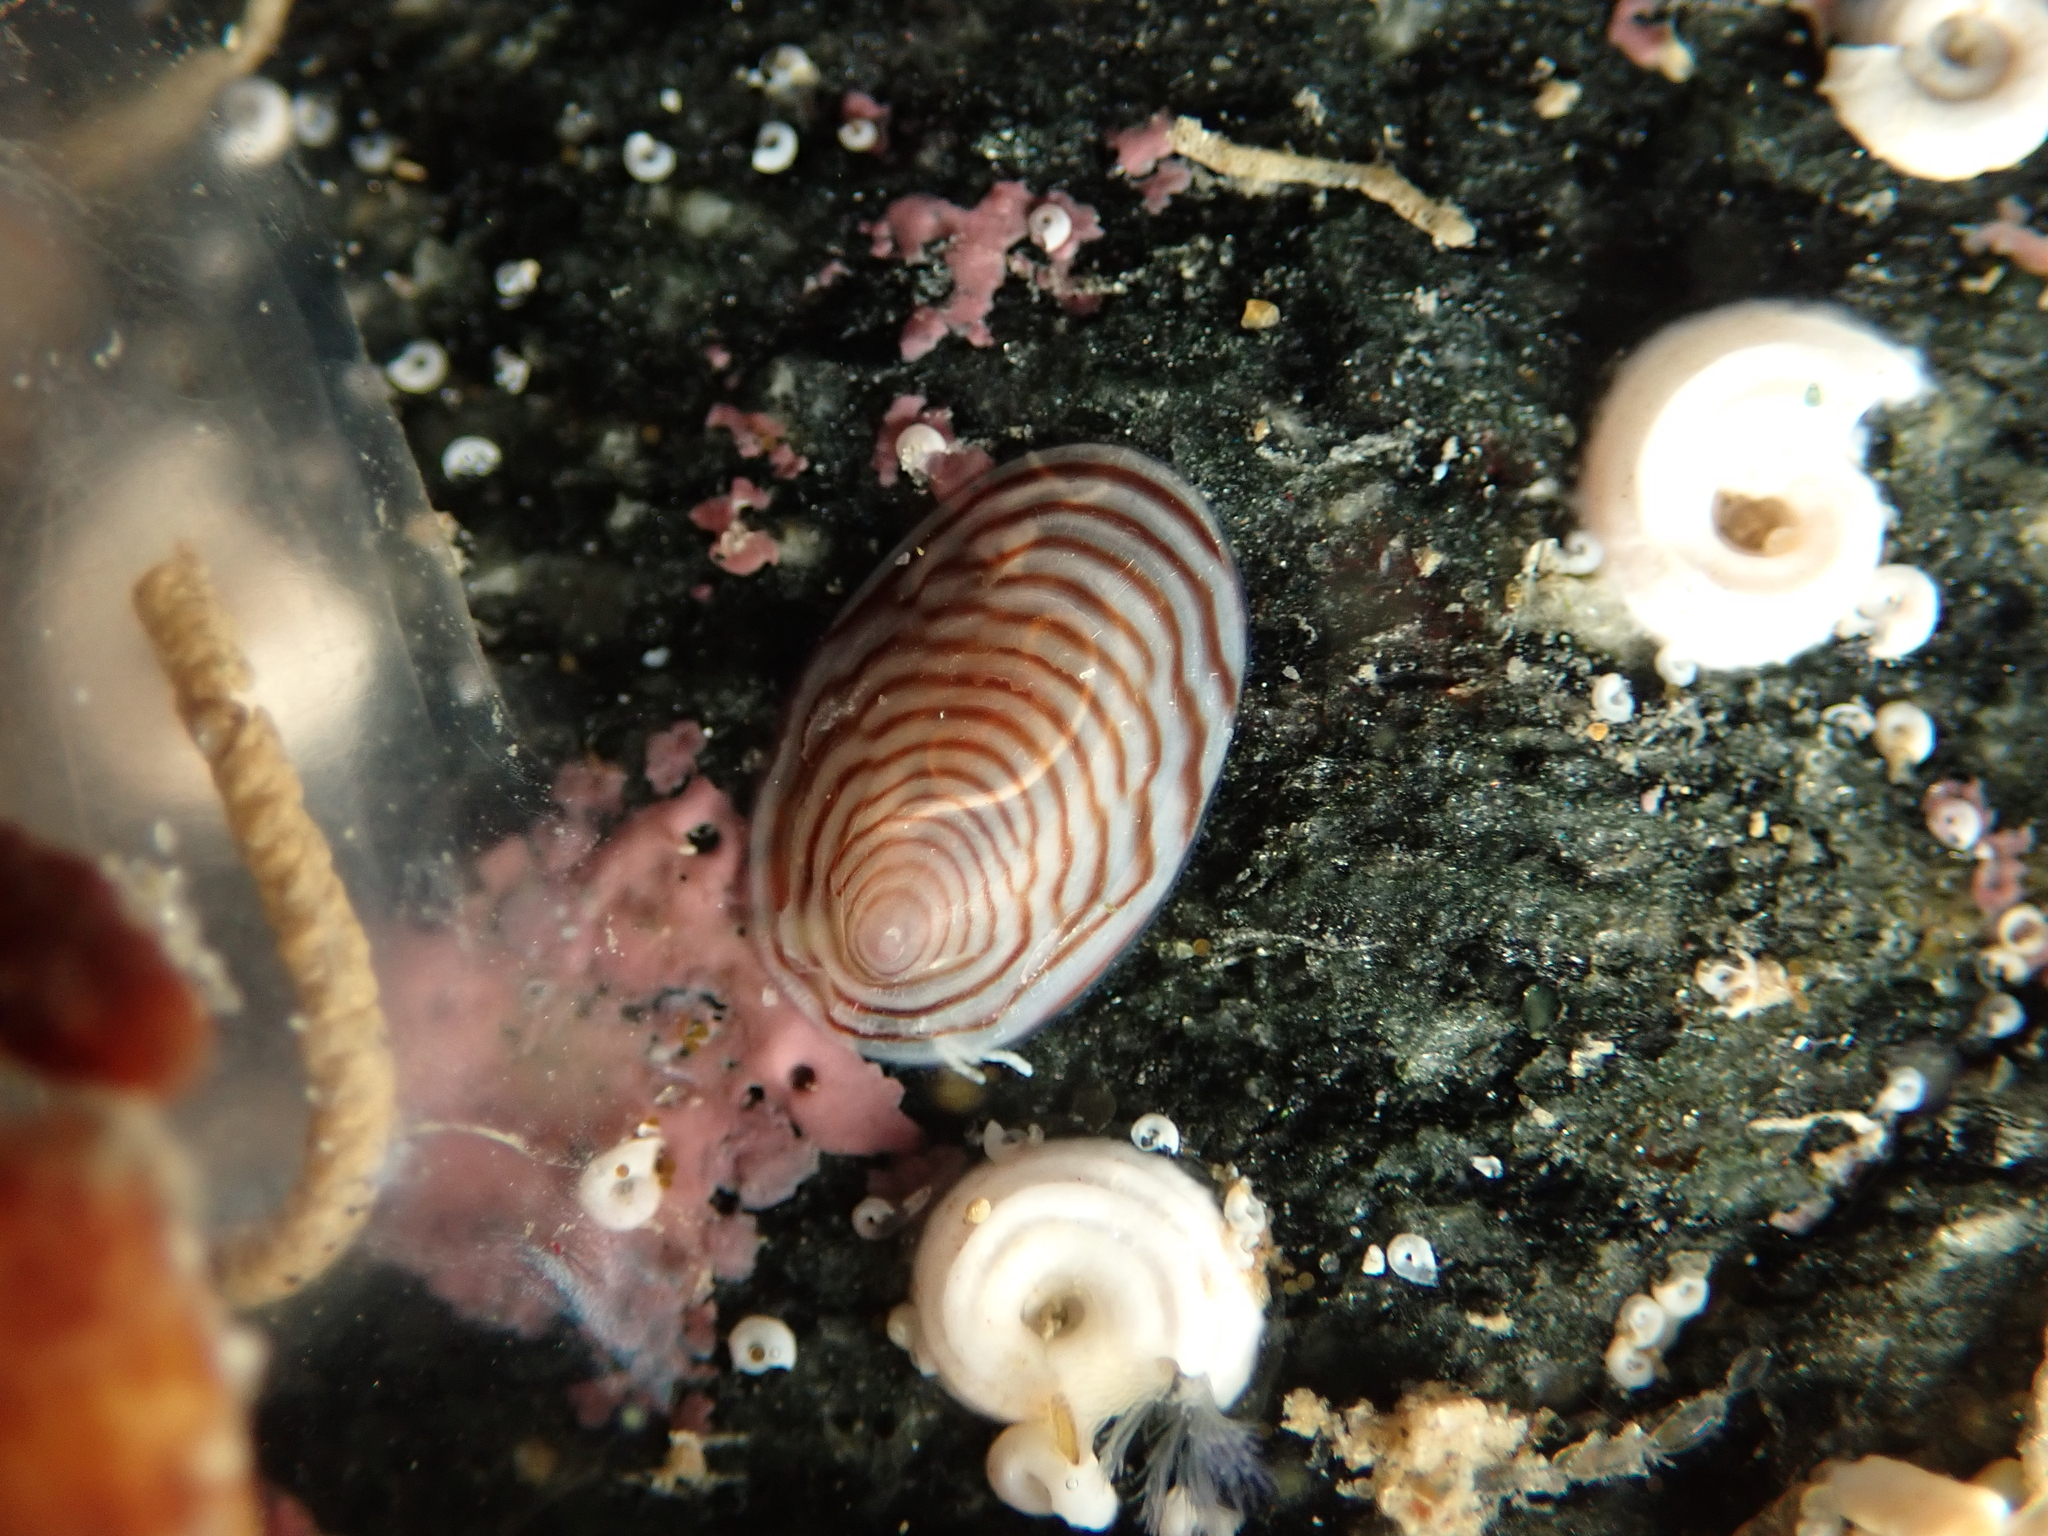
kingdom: Animalia
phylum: Mollusca
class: Gastropoda
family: Lottiidae
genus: Atalacmea
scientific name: Atalacmea multilinea
